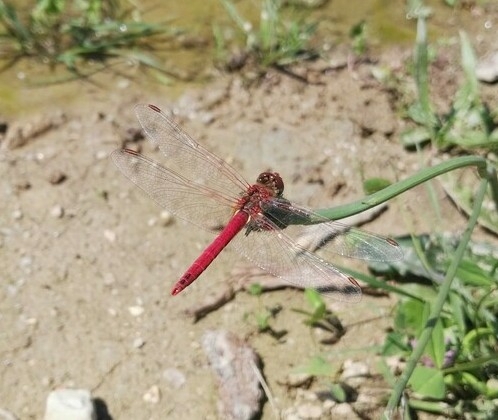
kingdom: Animalia
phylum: Arthropoda
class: Insecta
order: Odonata
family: Libellulidae
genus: Sympetrum
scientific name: Sympetrum fonscolombii
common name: Red-veined darter
